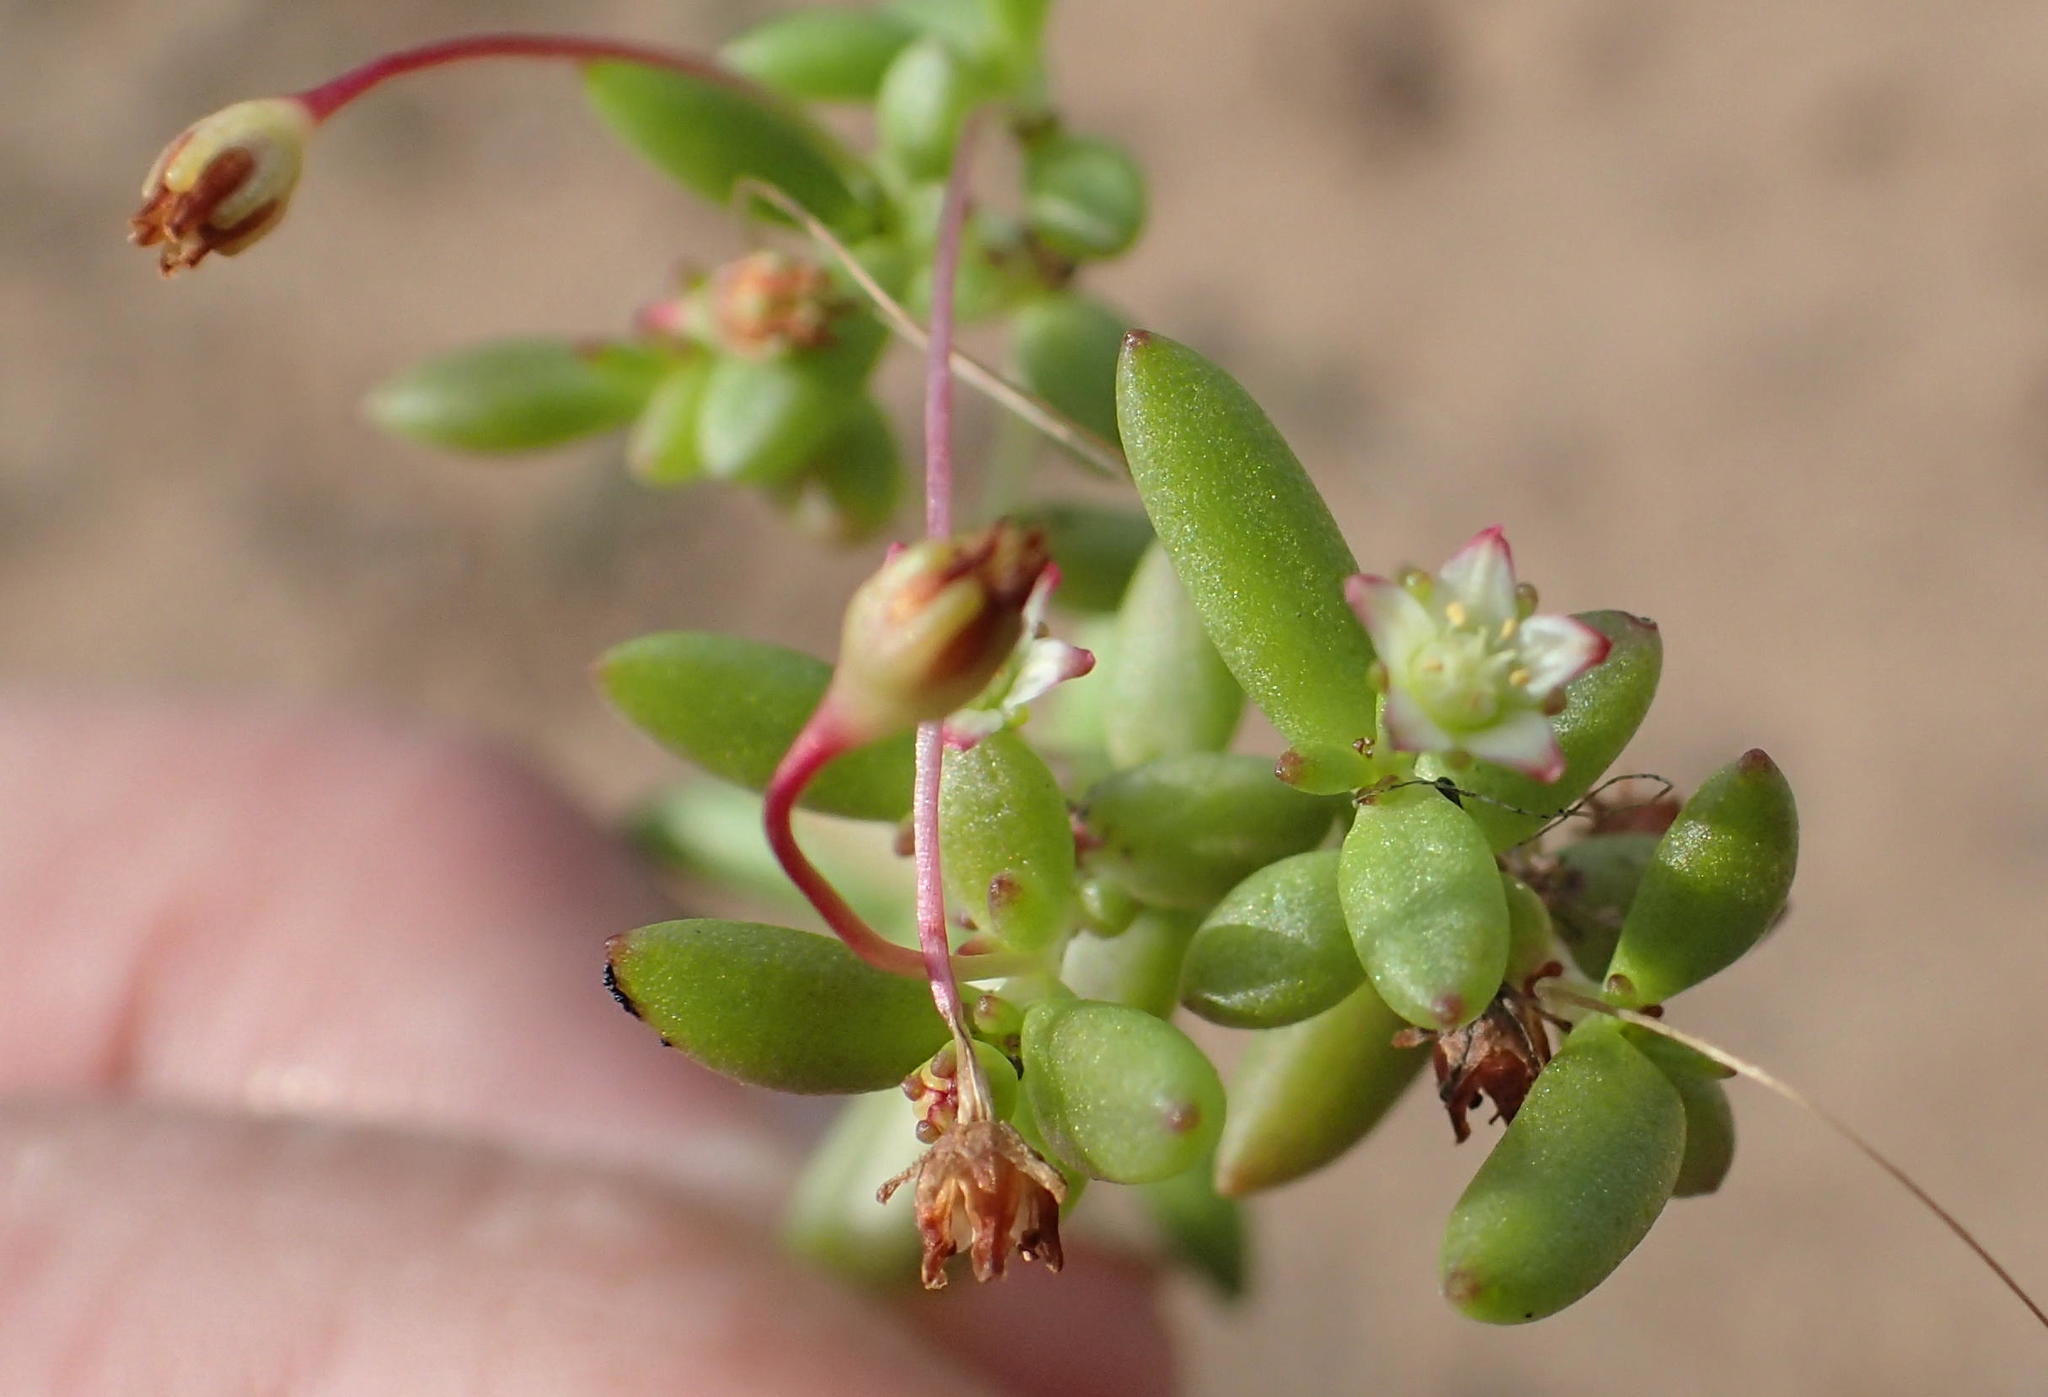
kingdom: Plantae
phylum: Tracheophyta
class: Magnoliopsida
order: Saxifragales
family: Crassulaceae
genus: Crassula
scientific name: Crassula expansa
